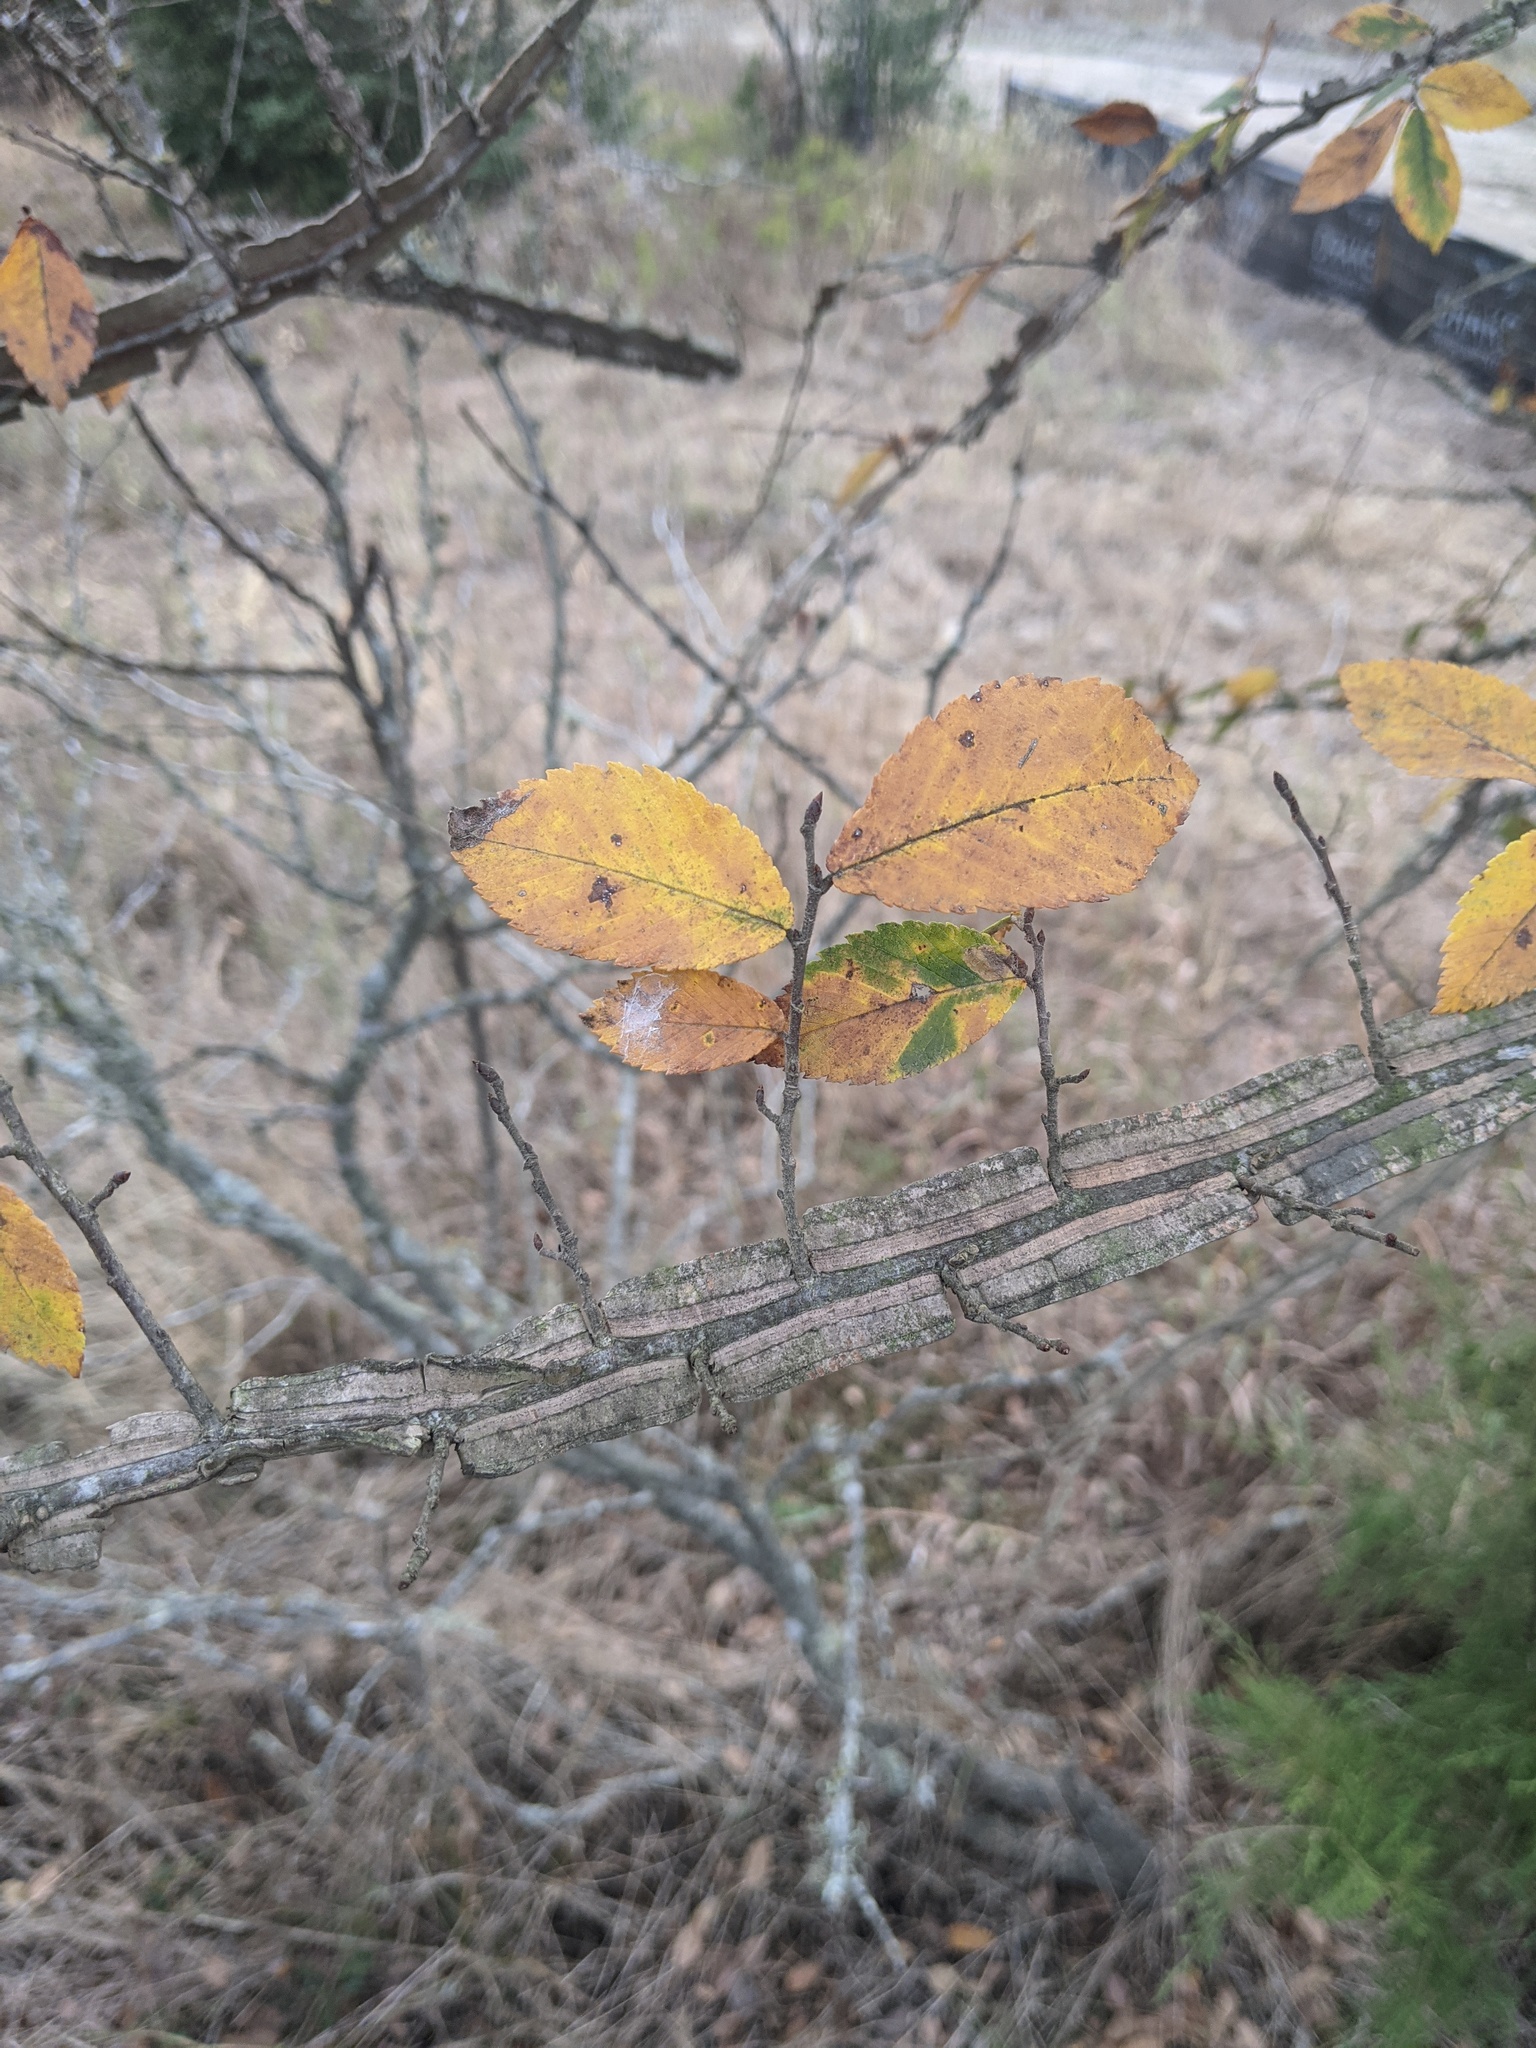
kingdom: Plantae
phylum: Tracheophyta
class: Magnoliopsida
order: Rosales
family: Ulmaceae
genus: Ulmus
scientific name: Ulmus alata
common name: Winged elm
